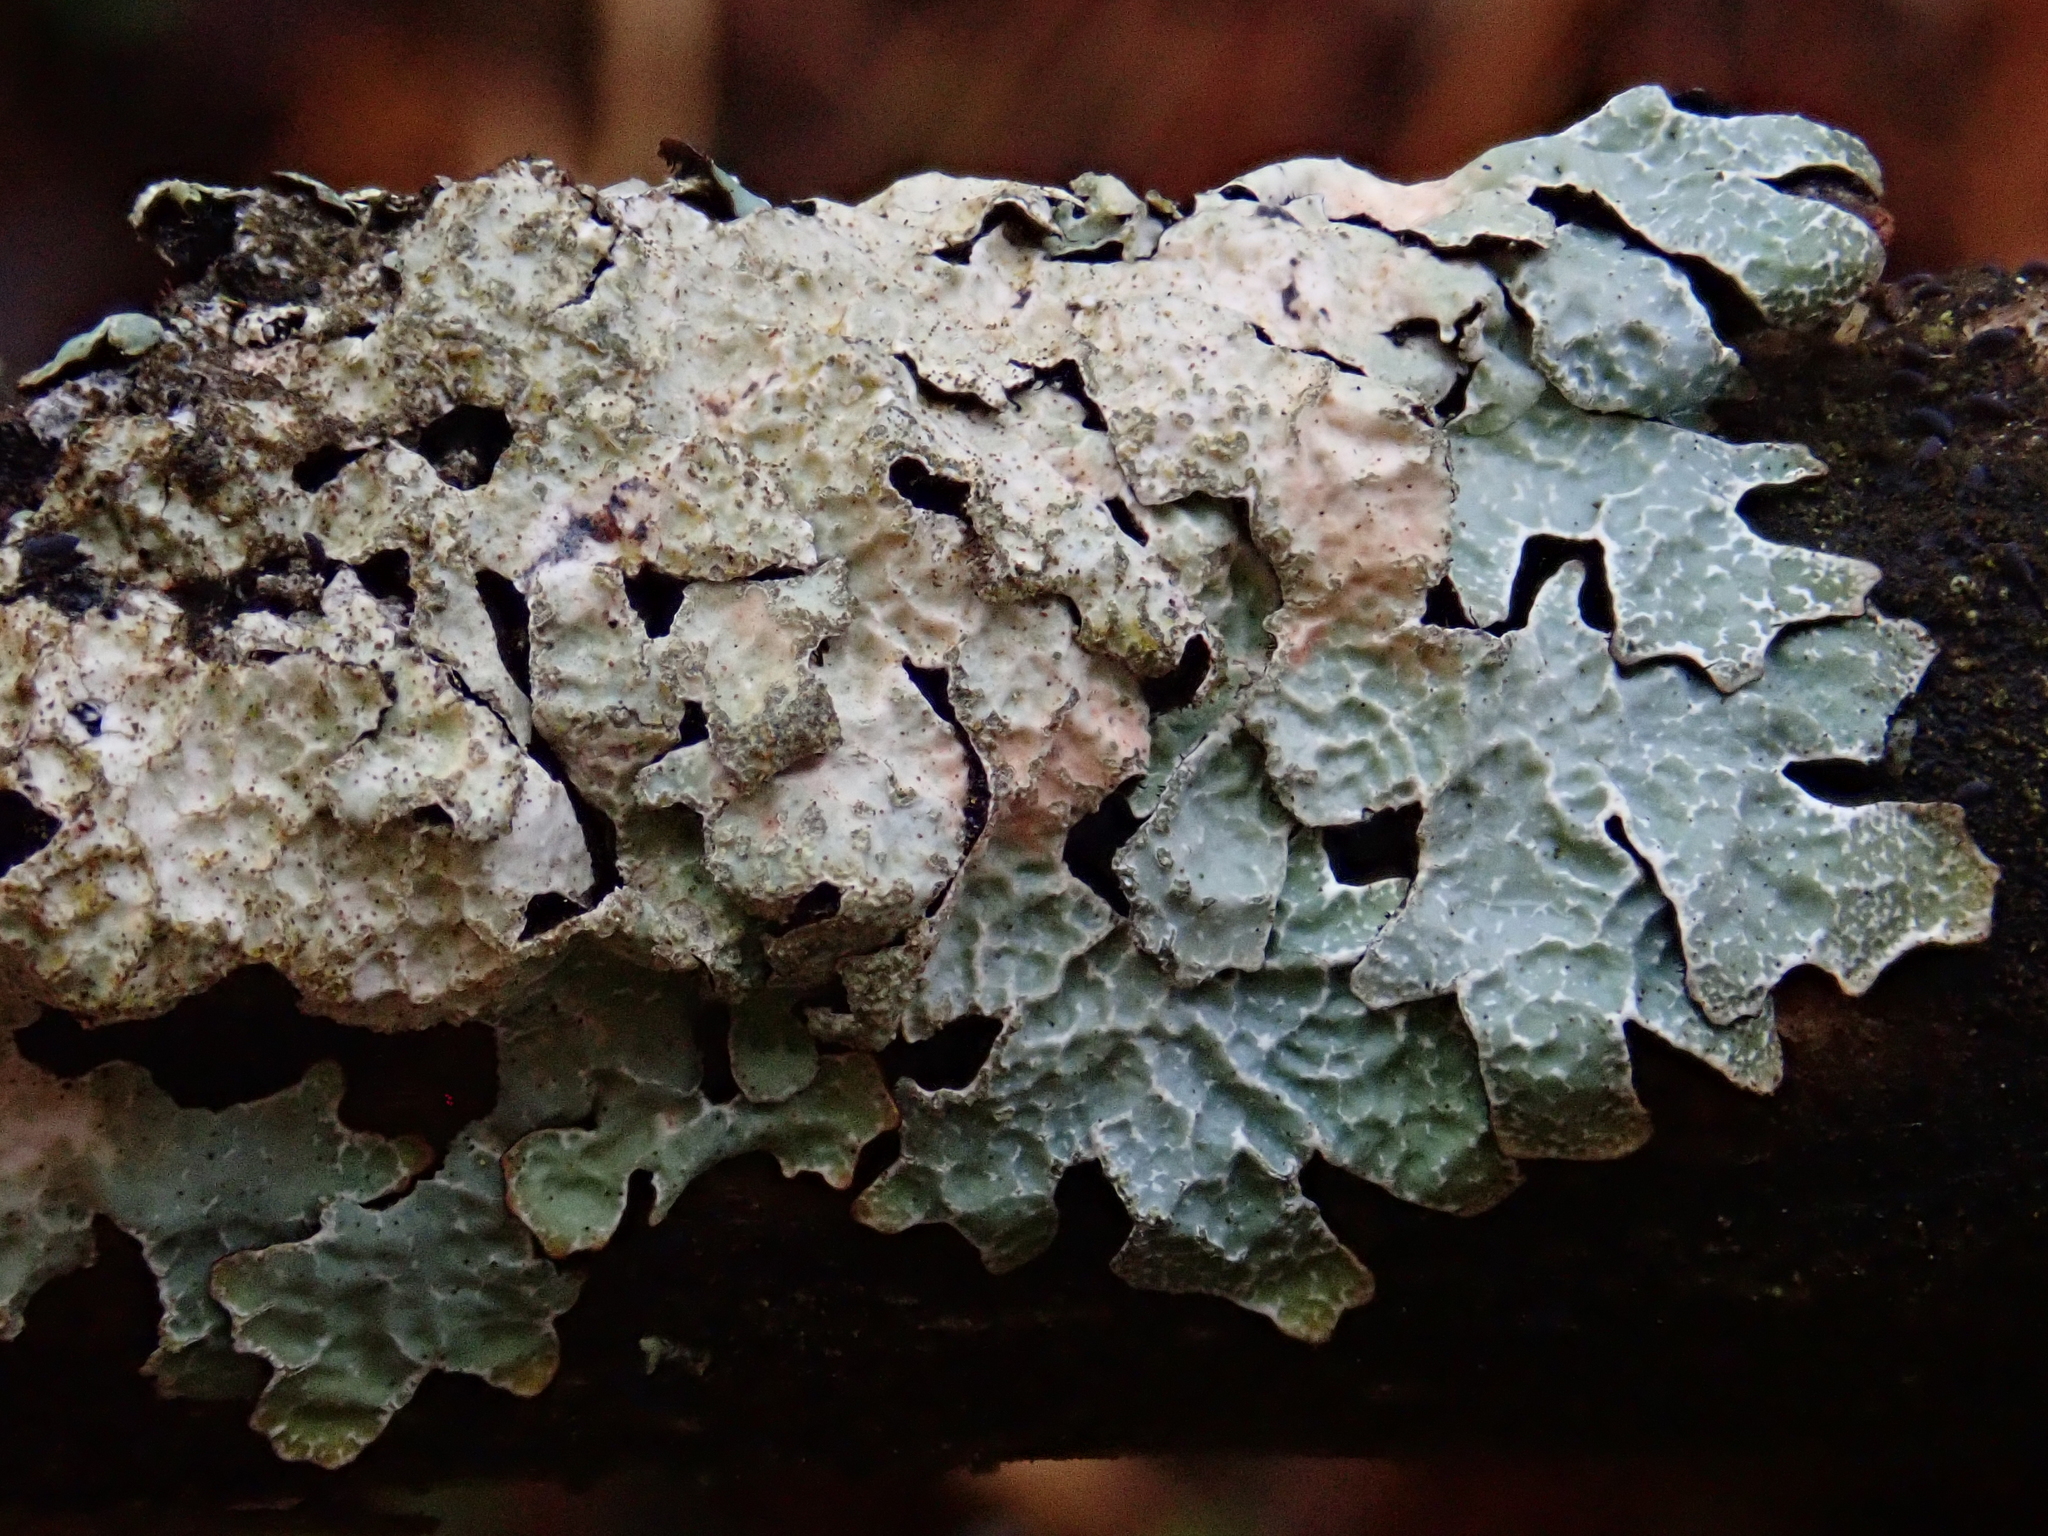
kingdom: Fungi
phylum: Ascomycota
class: Lecanoromycetes
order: Lecanorales
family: Parmeliaceae
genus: Parmelia
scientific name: Parmelia sulcata
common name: Netted shield lichen
